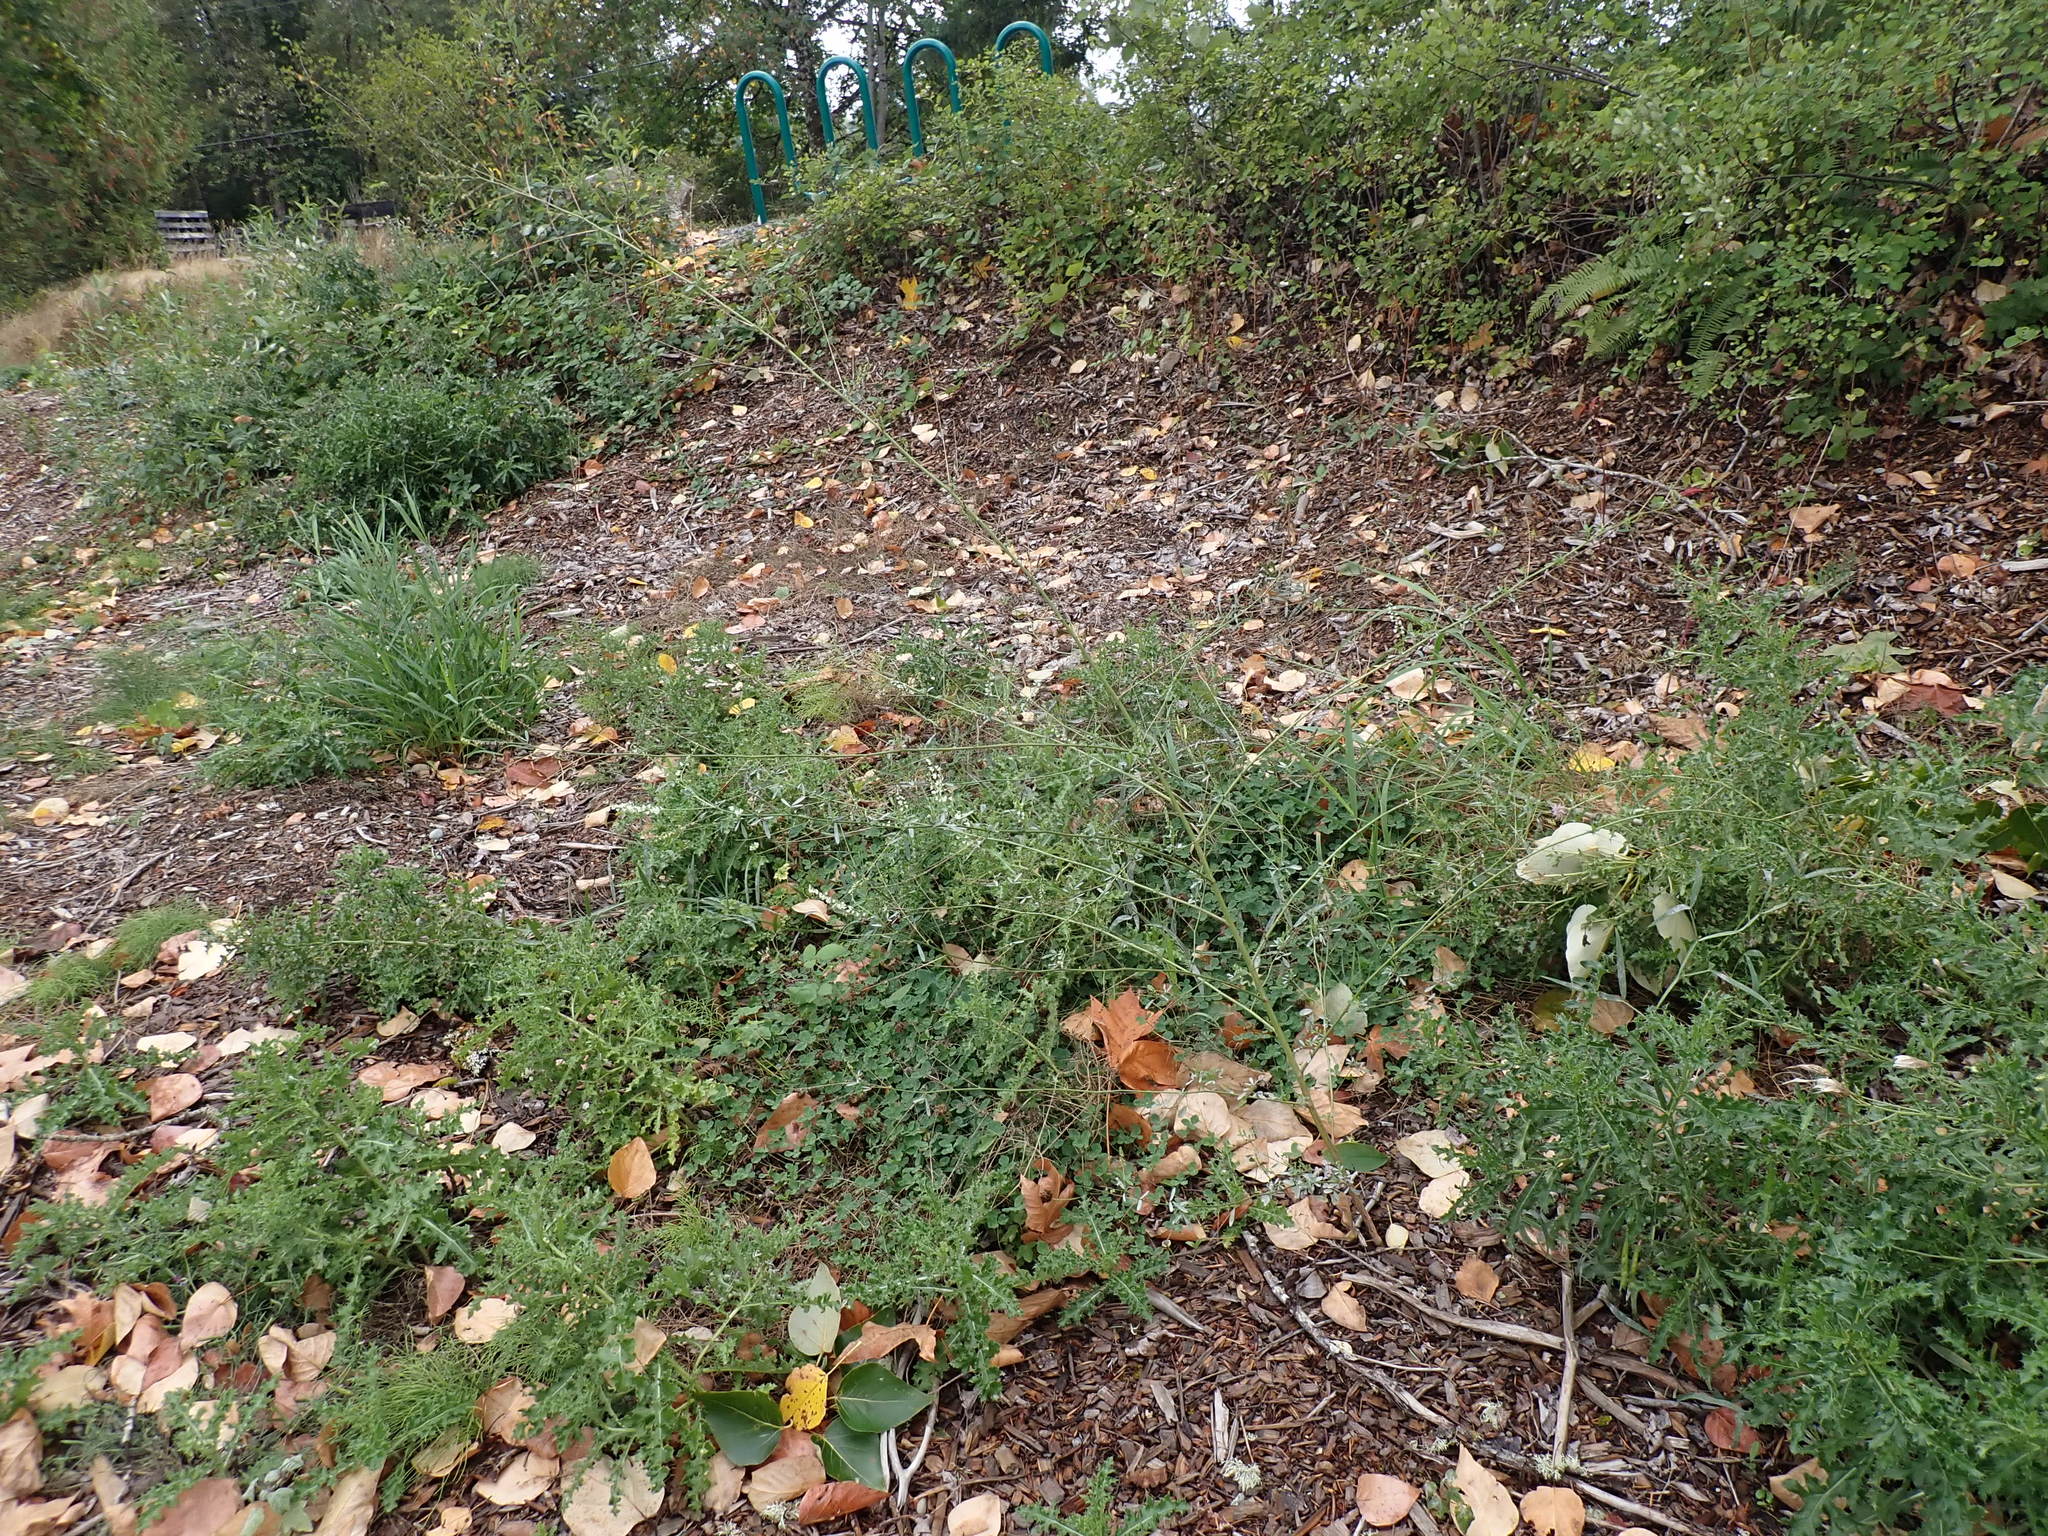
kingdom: Plantae
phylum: Tracheophyta
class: Magnoliopsida
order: Fabales
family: Fabaceae
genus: Melilotus
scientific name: Melilotus albus
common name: White melilot
